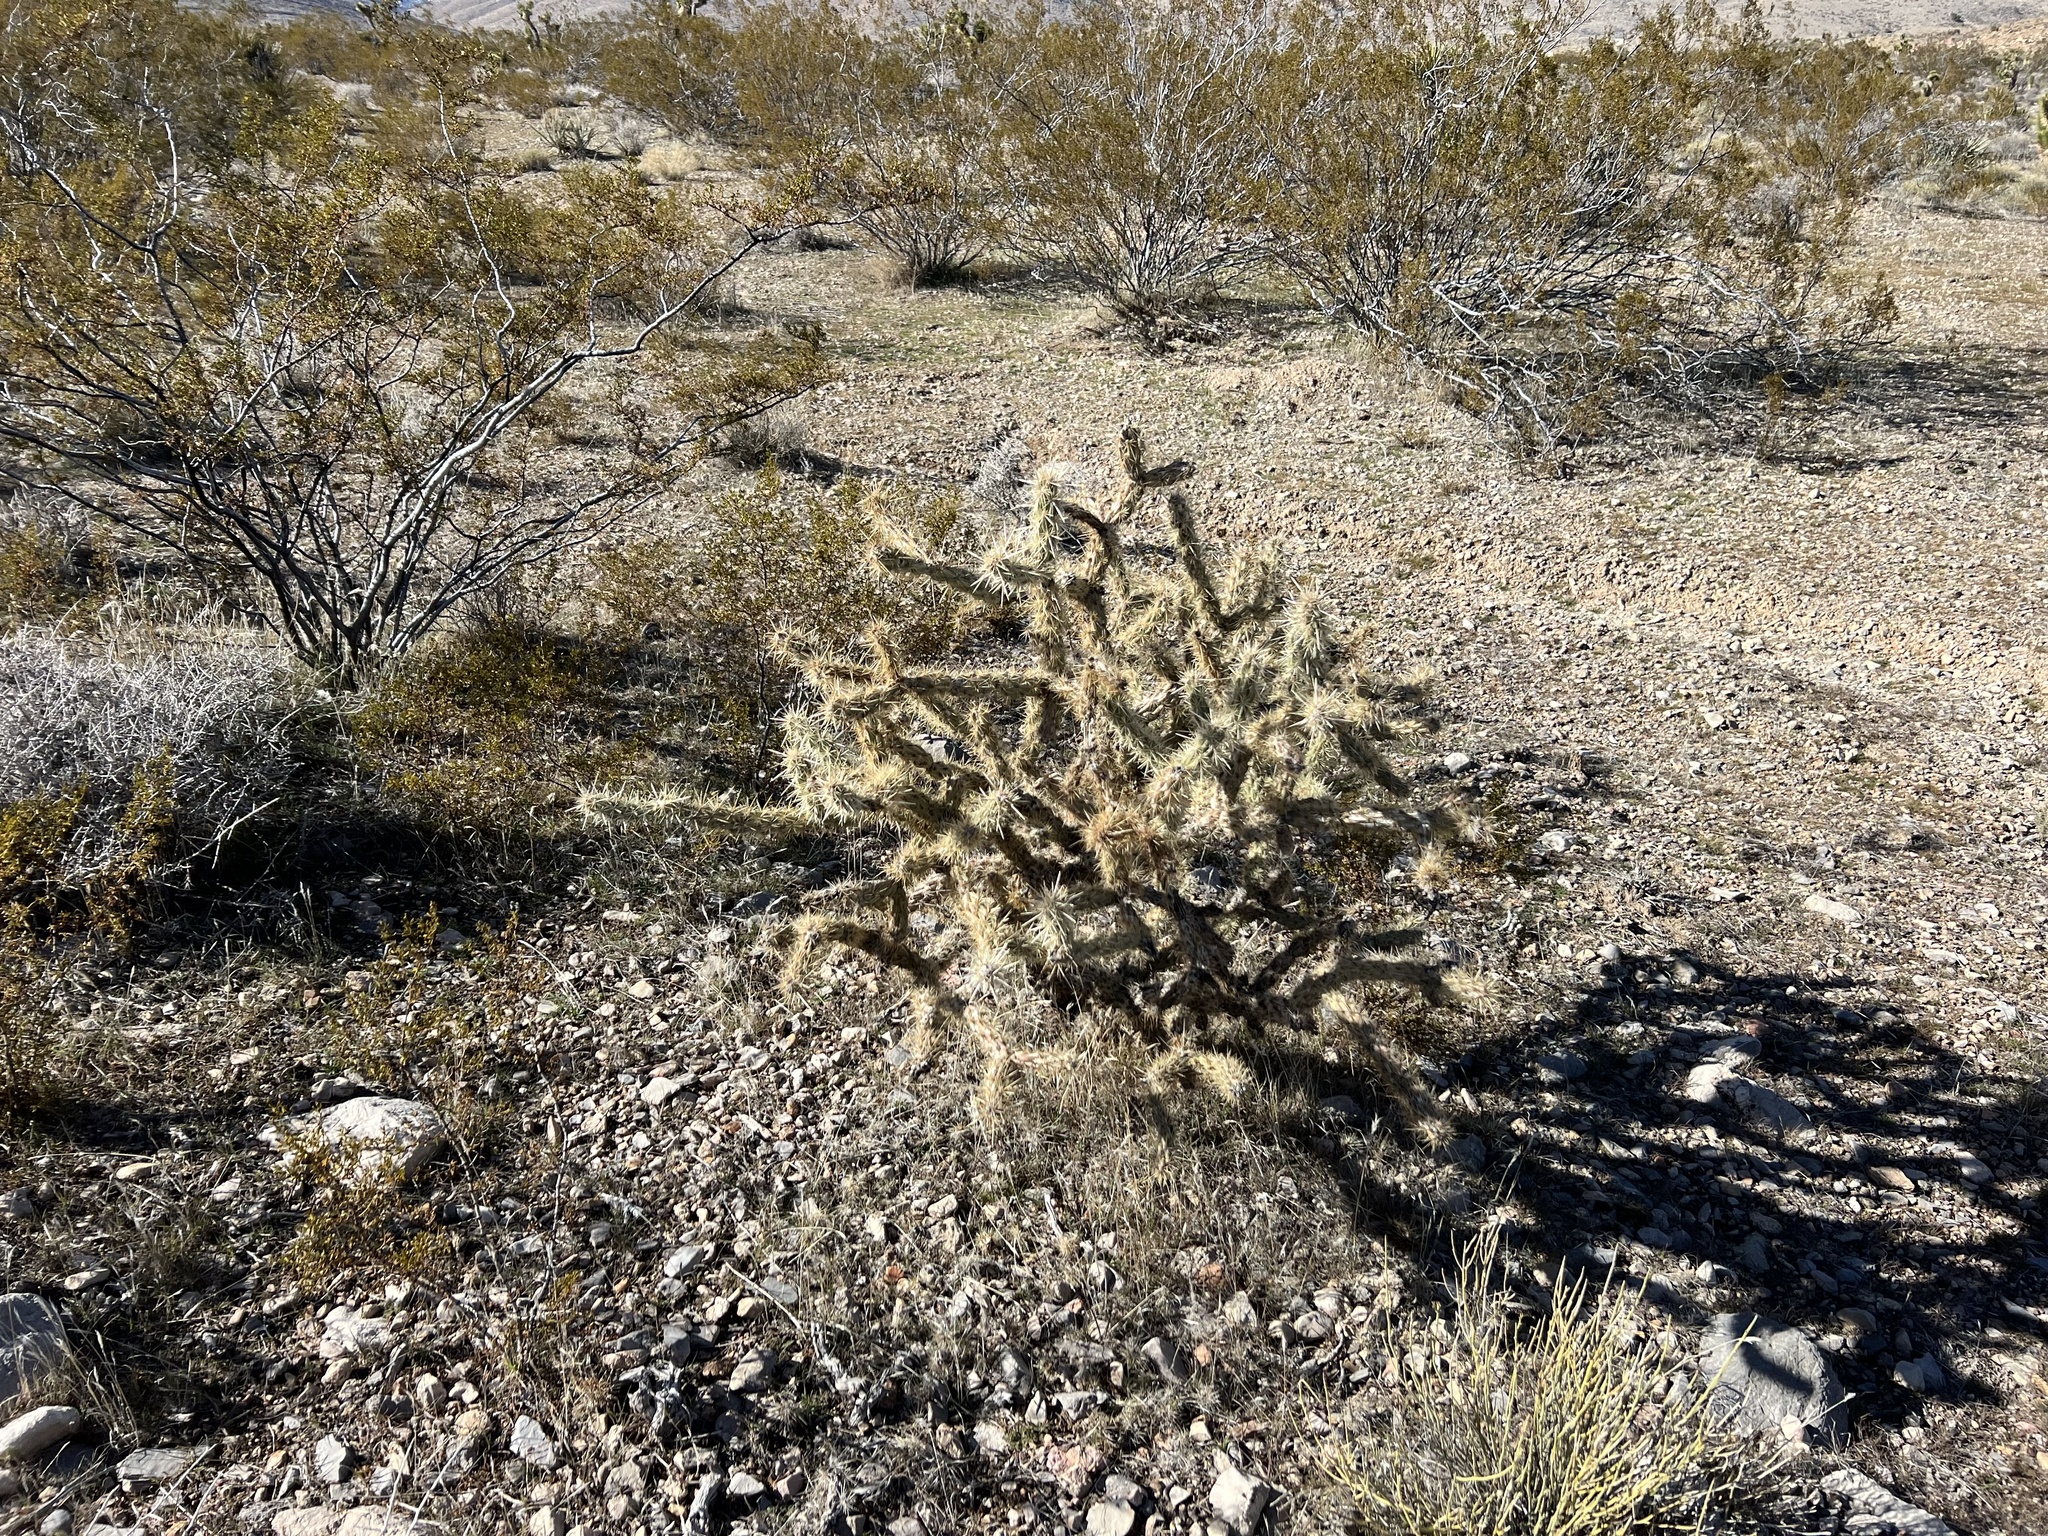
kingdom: Plantae
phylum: Tracheophyta
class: Magnoliopsida
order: Caryophyllales
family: Cactaceae
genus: Cylindropuntia
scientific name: Cylindropuntia acanthocarpa
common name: Buckhorn cholla
